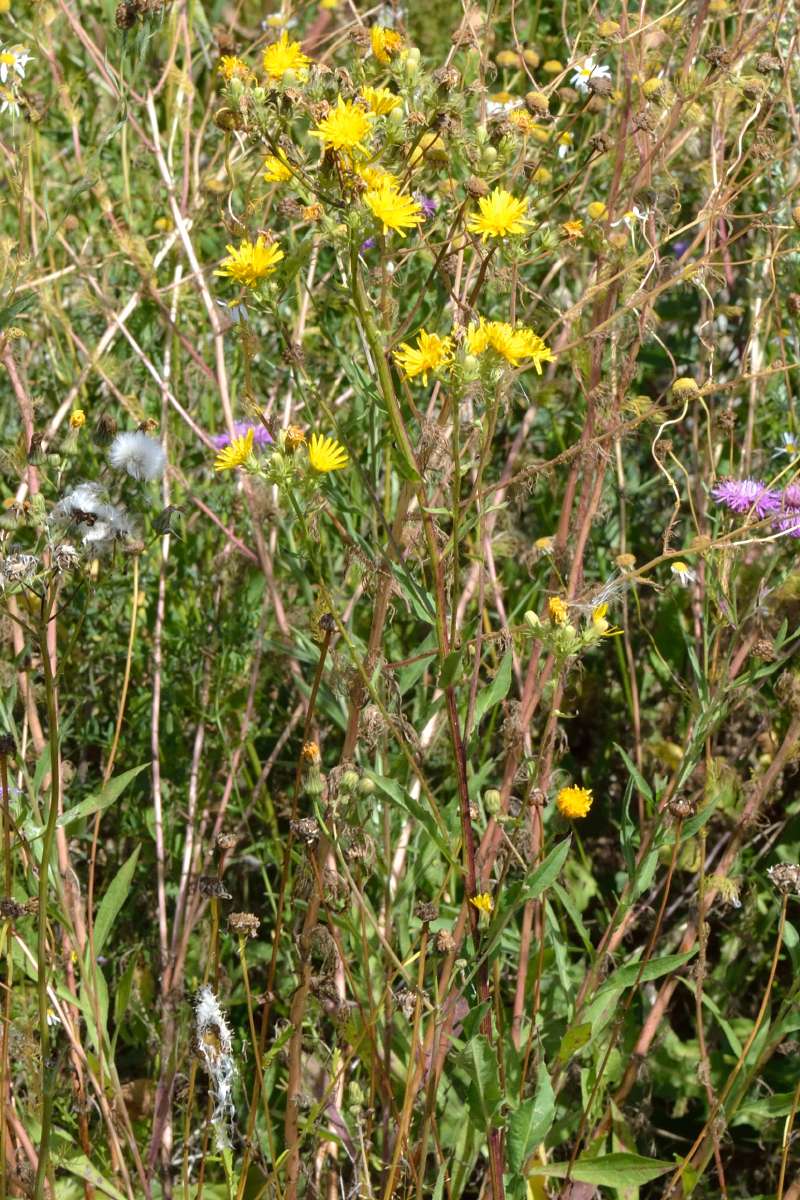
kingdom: Plantae
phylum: Tracheophyta
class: Magnoliopsida
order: Asterales
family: Asteraceae
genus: Picris
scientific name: Picris hieracioides
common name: Hawkweed oxtongue
